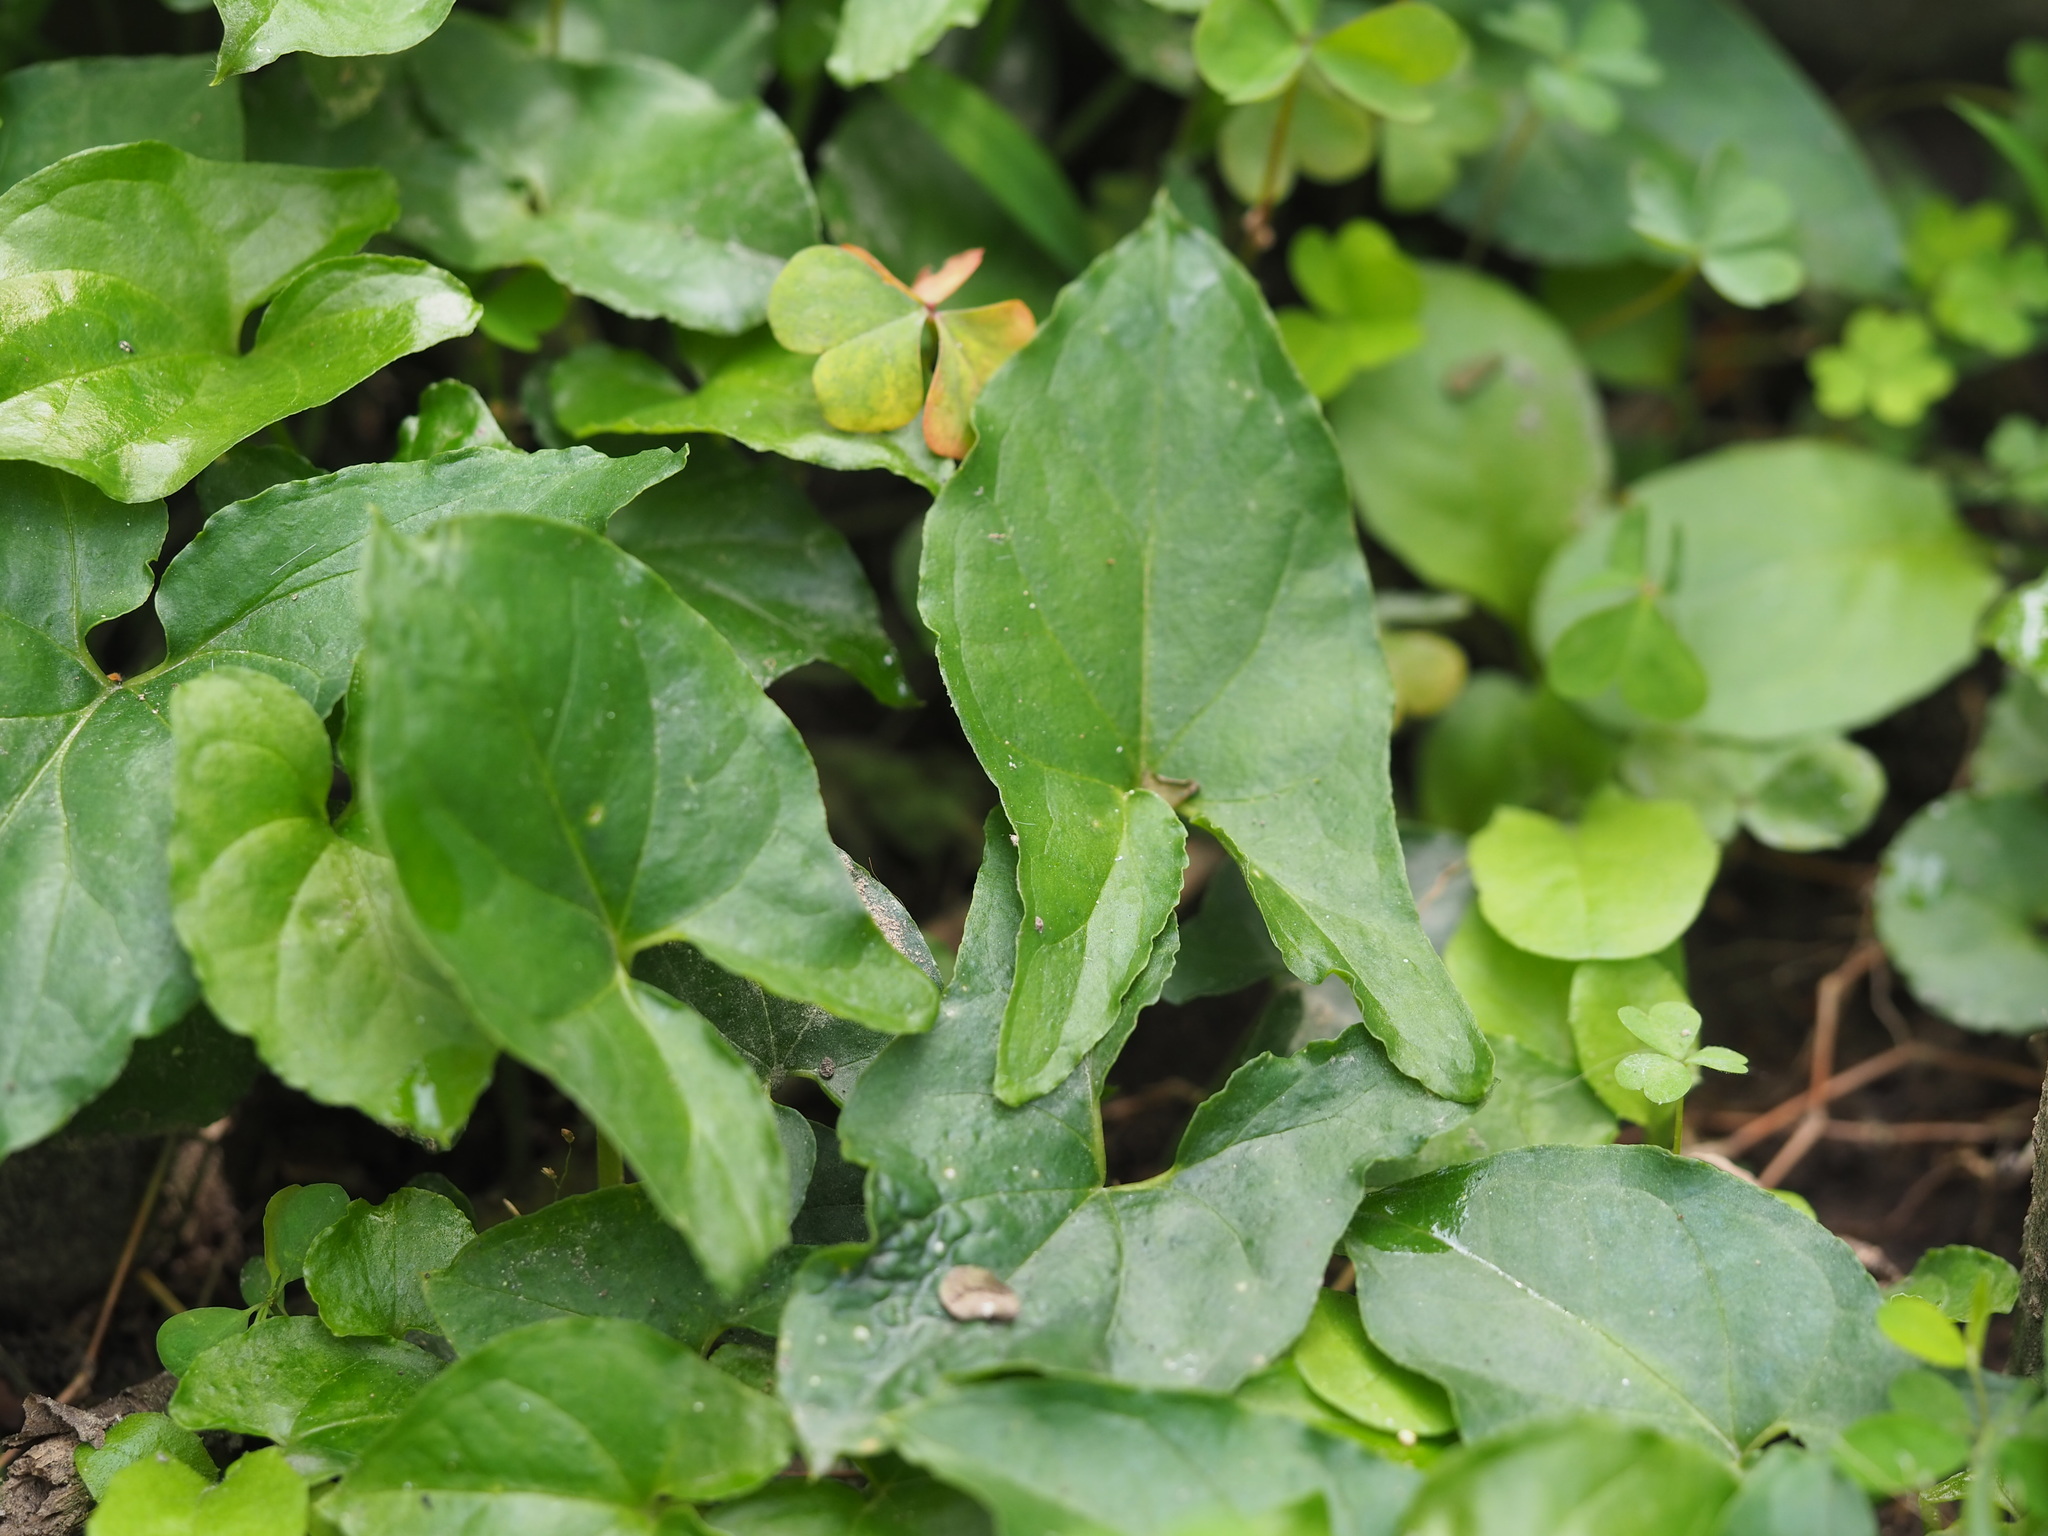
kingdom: Plantae
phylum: Tracheophyta
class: Liliopsida
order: Alismatales
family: Araceae
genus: Typhonium
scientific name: Typhonium blumei
